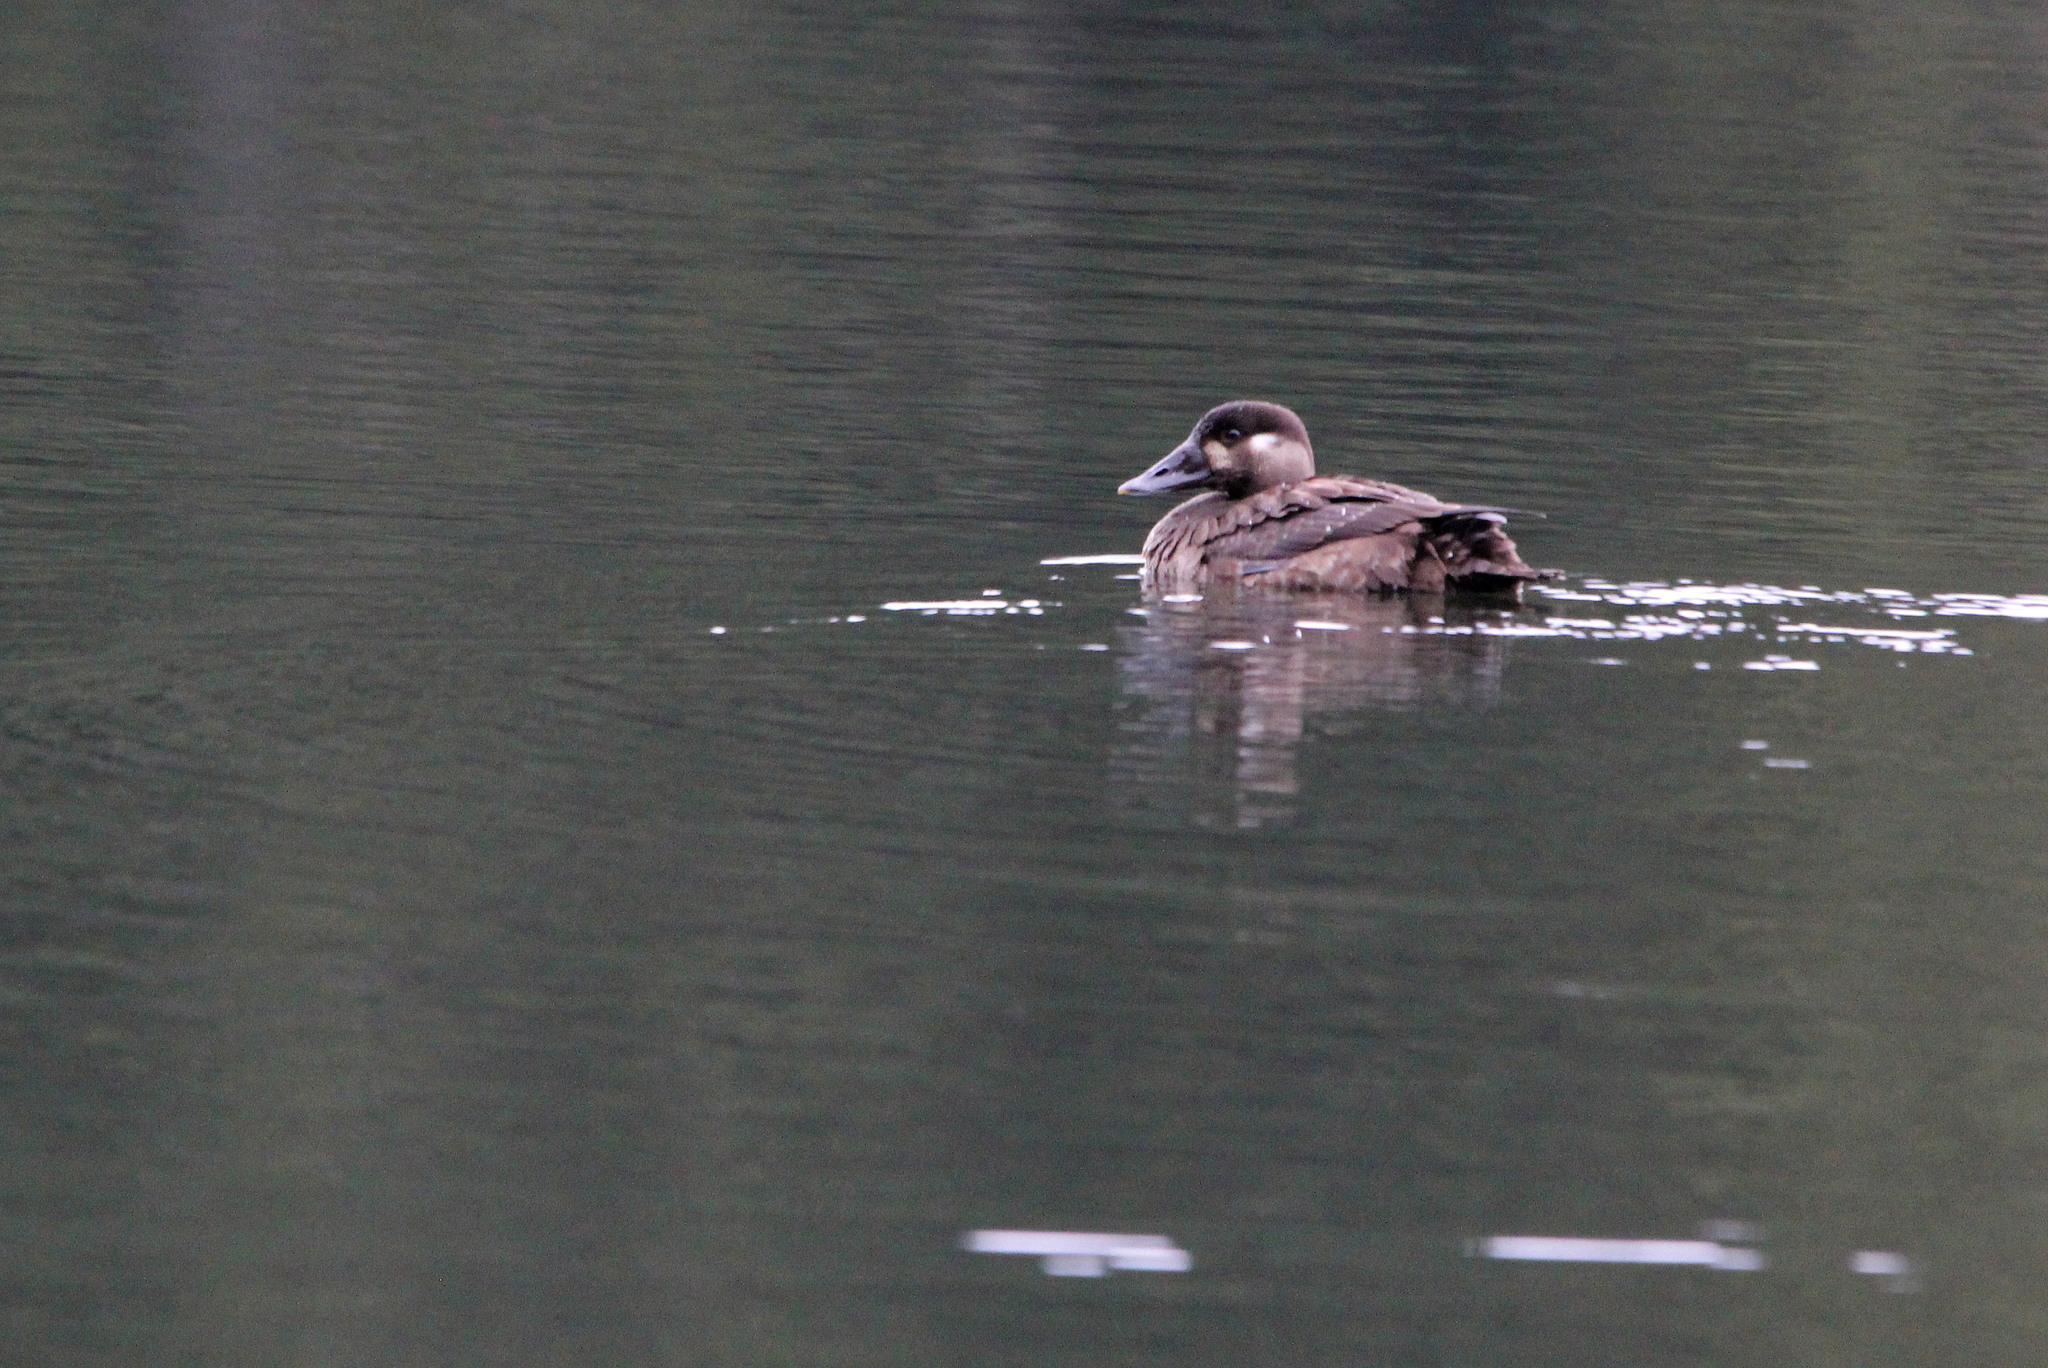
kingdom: Animalia
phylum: Chordata
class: Aves
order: Anseriformes
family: Anatidae
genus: Melanitta
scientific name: Melanitta perspicillata
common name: Surf scoter
